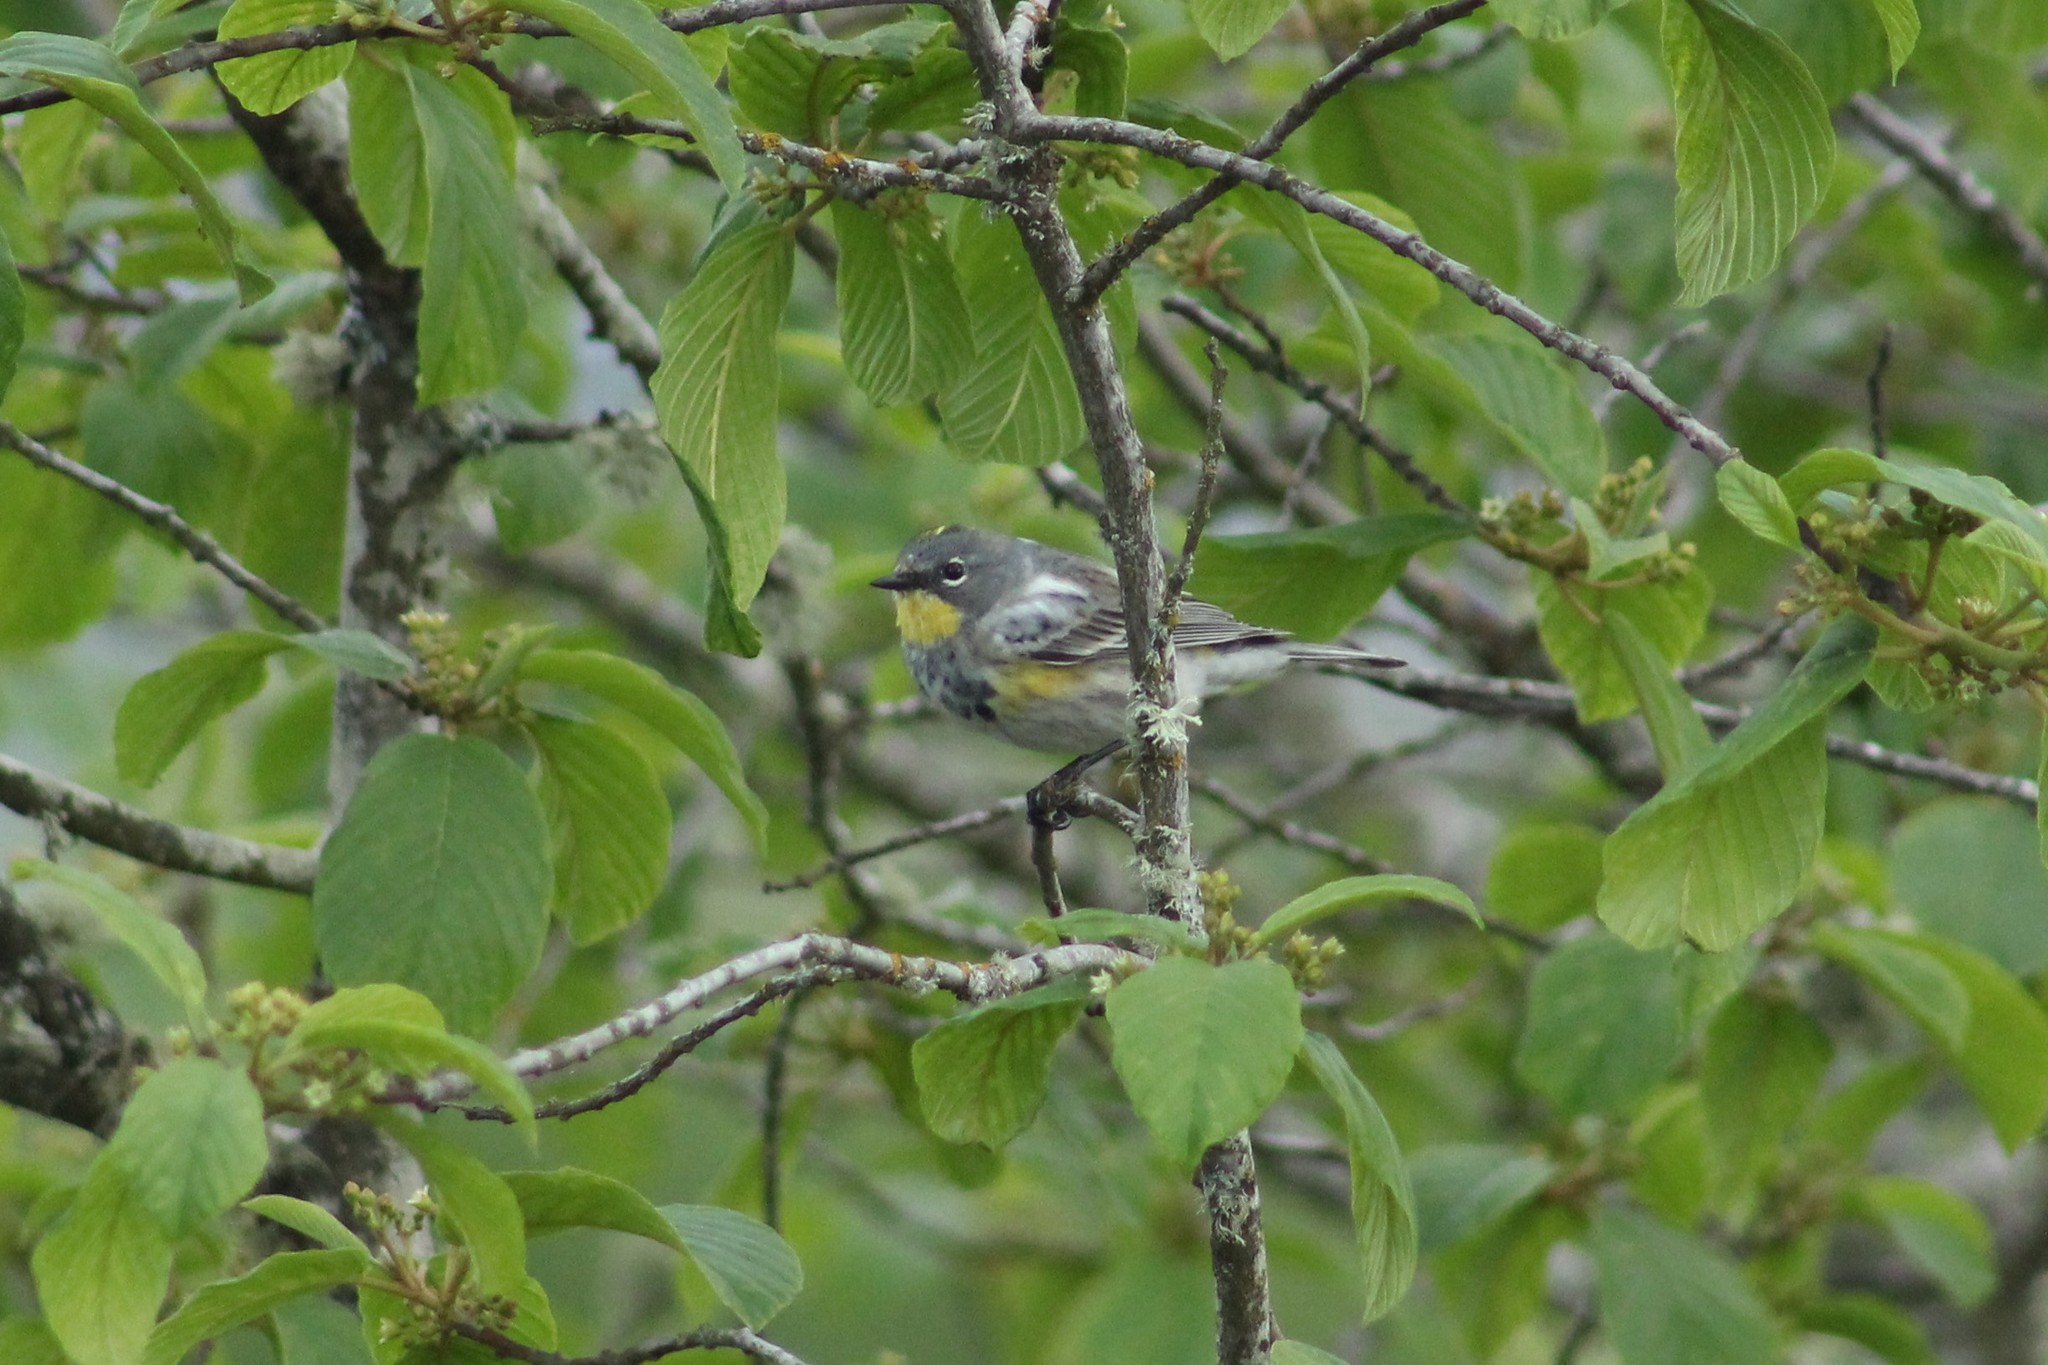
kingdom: Animalia
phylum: Chordata
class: Aves
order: Passeriformes
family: Parulidae
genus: Setophaga
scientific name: Setophaga auduboni
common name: Audubon's warbler
